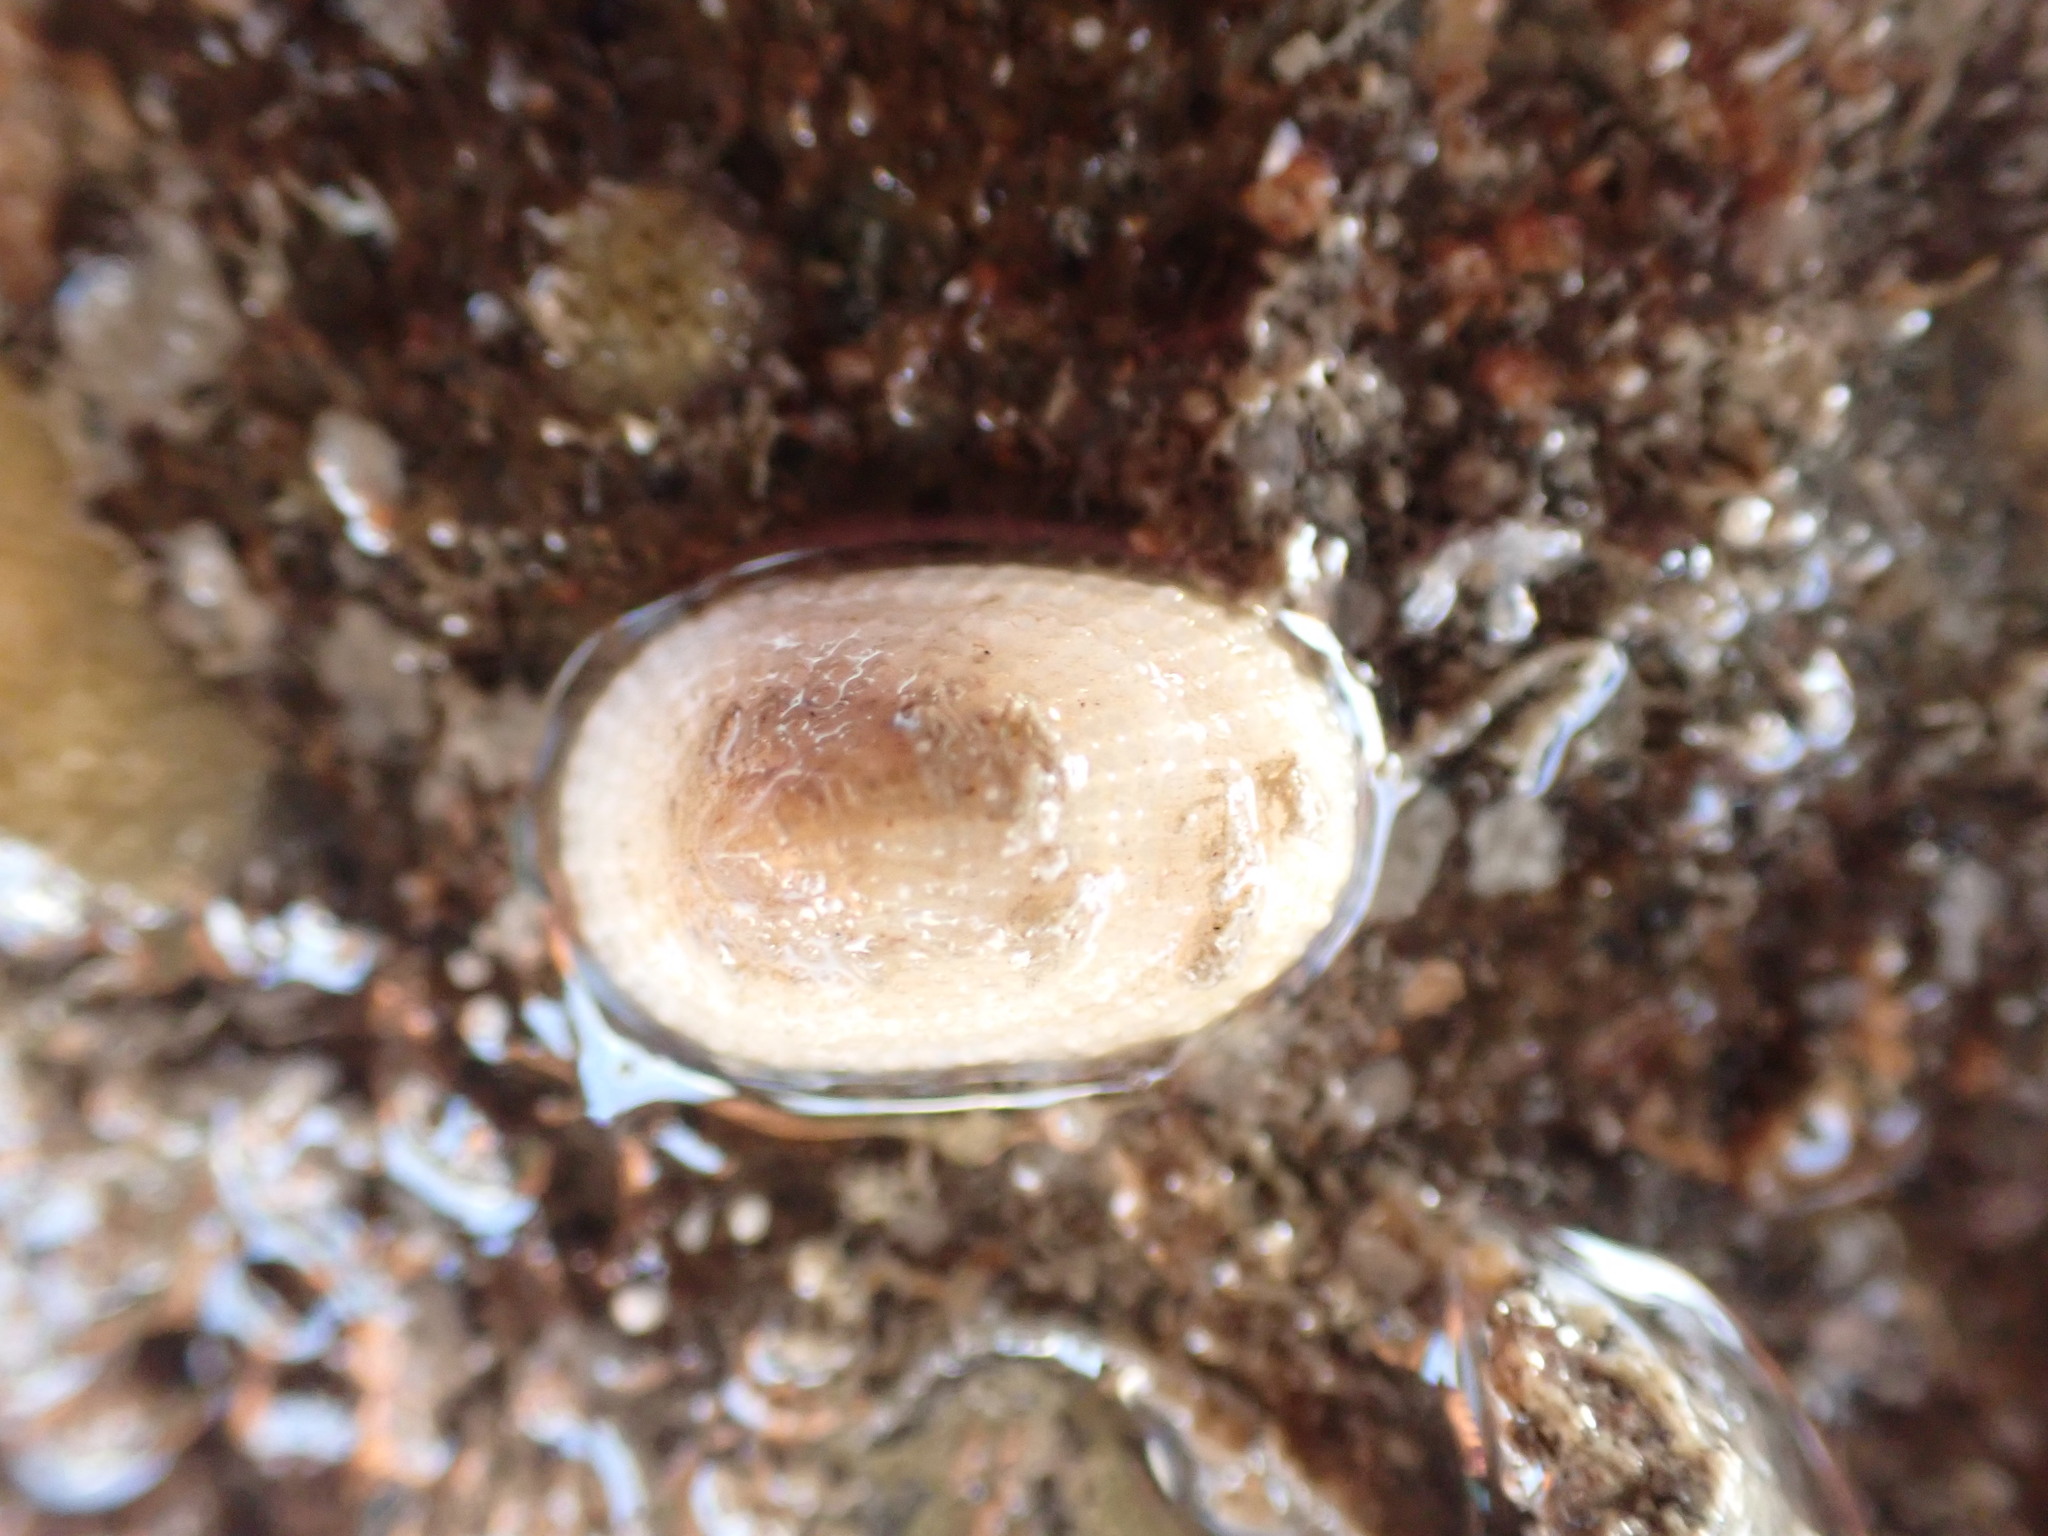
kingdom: Animalia
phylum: Mollusca
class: Gastropoda
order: Lepetellida
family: Fissurellidae
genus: Tugali
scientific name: Tugali suteri
